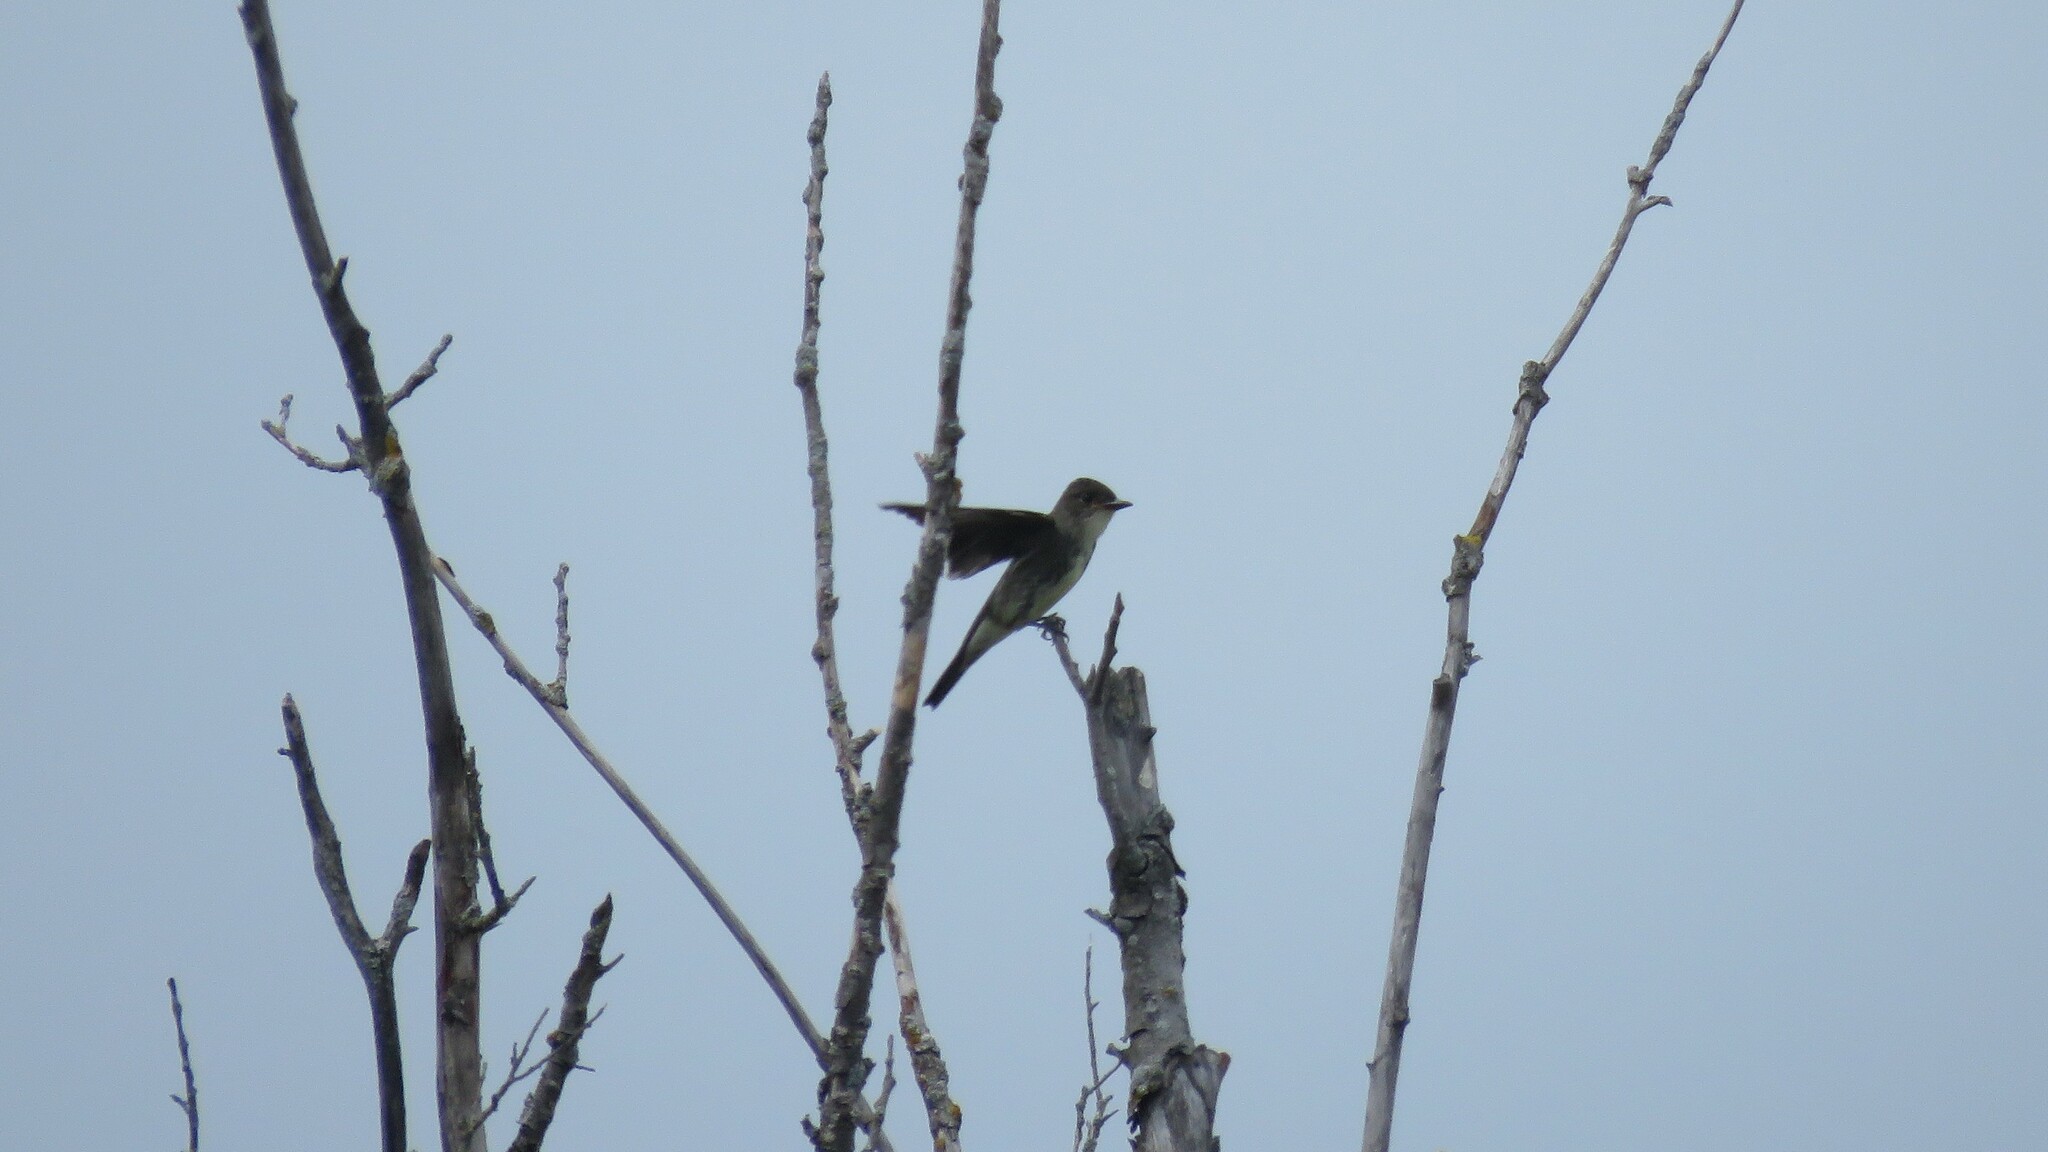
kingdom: Animalia
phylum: Chordata
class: Aves
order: Passeriformes
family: Tyrannidae
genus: Contopus
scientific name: Contopus cooperi
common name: Olive-sided flycatcher
